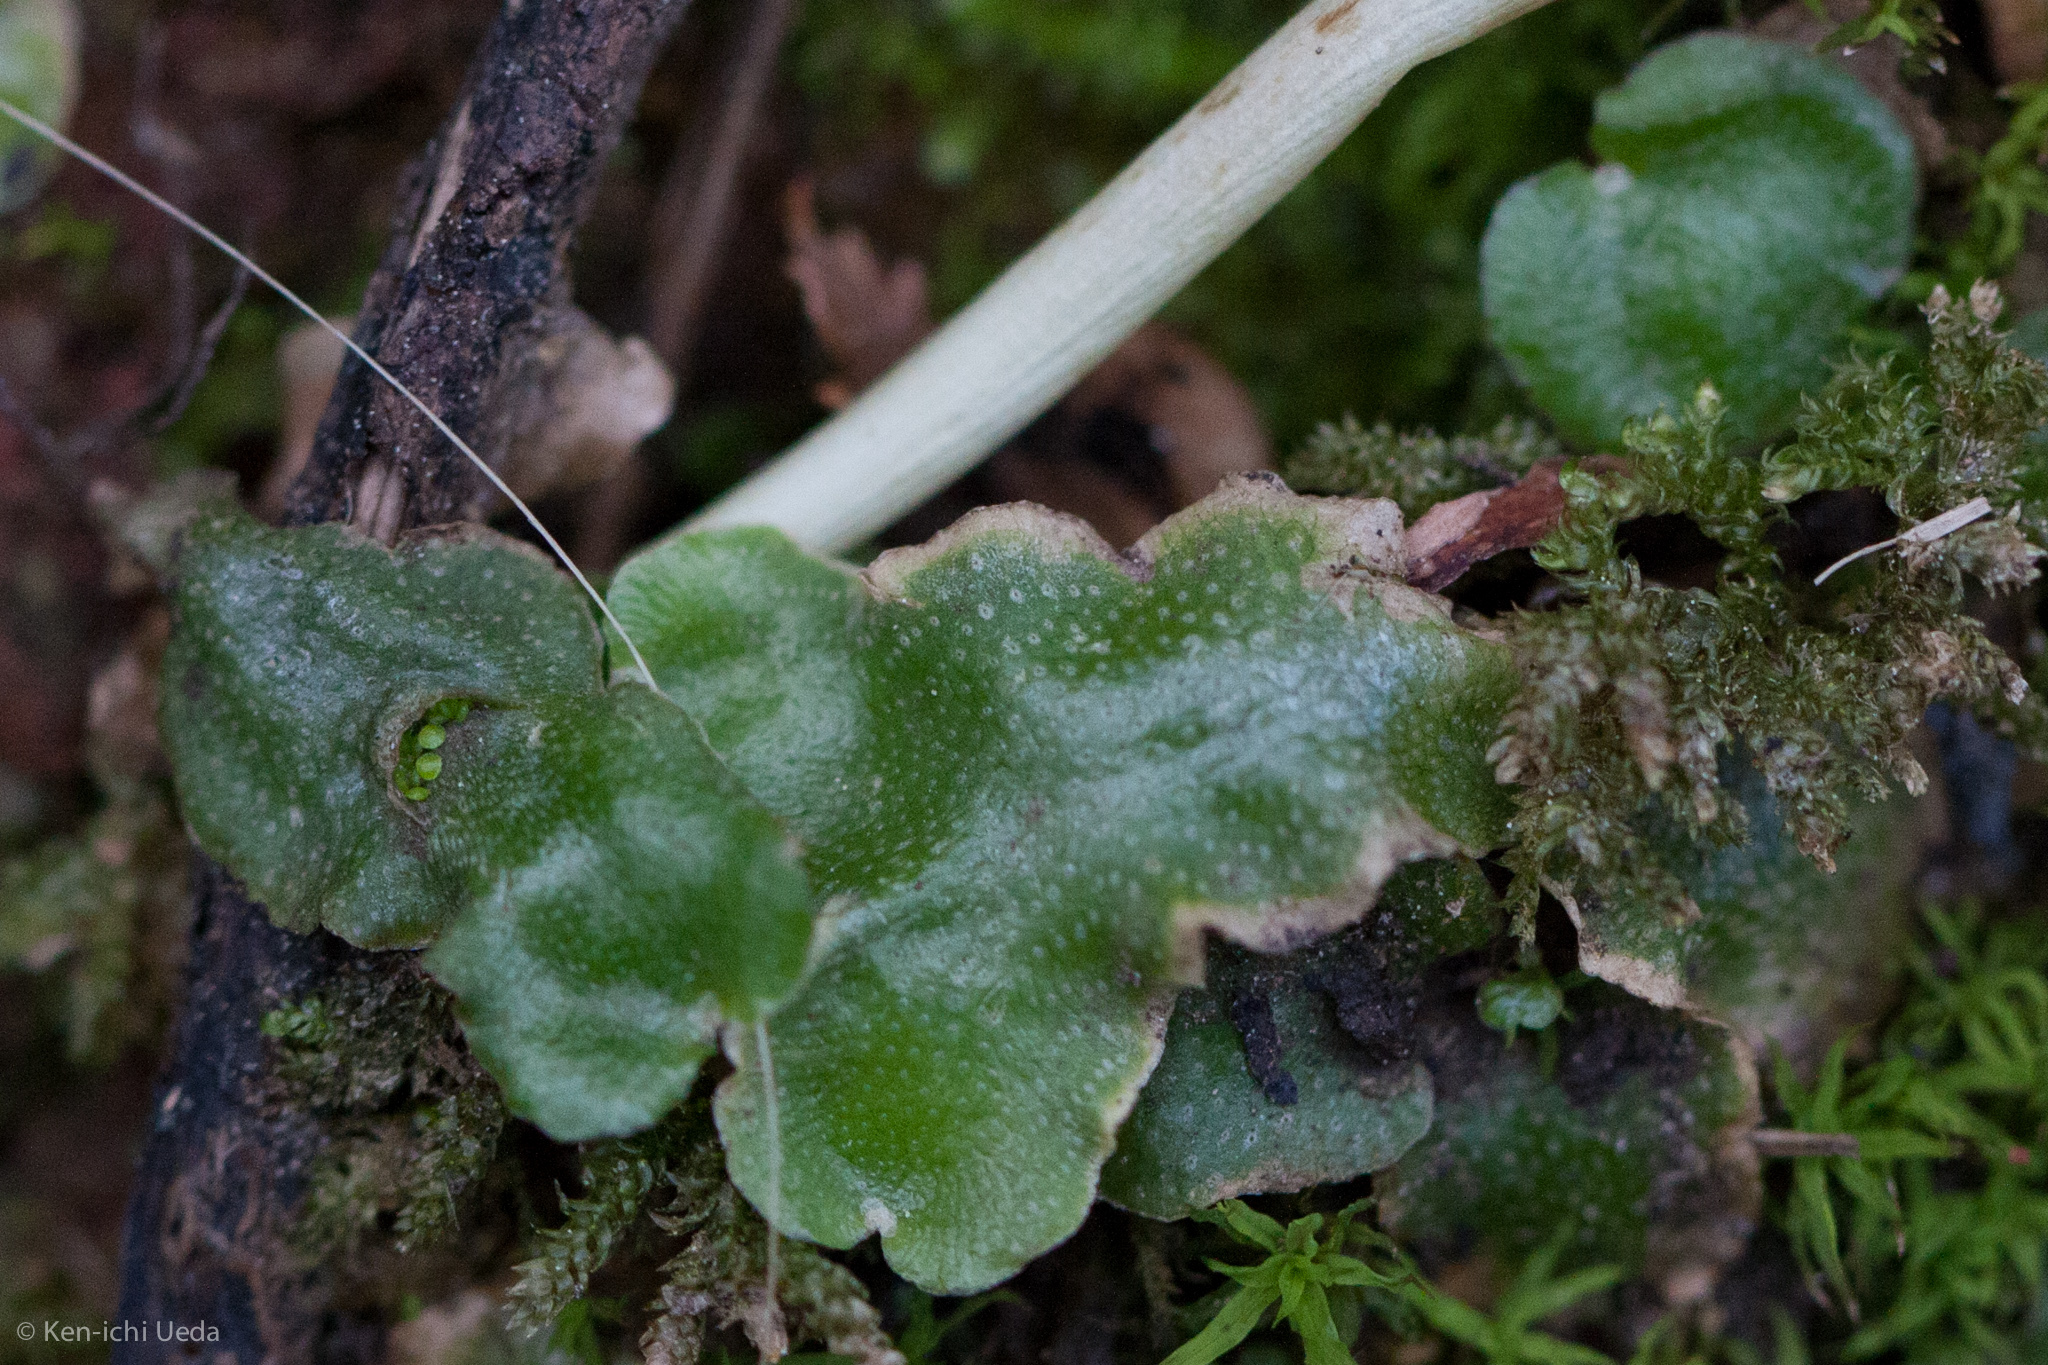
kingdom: Plantae
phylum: Marchantiophyta
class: Marchantiopsida
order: Lunulariales
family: Lunulariaceae
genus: Lunularia
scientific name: Lunularia cruciata
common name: Crescent-cup liverwort
